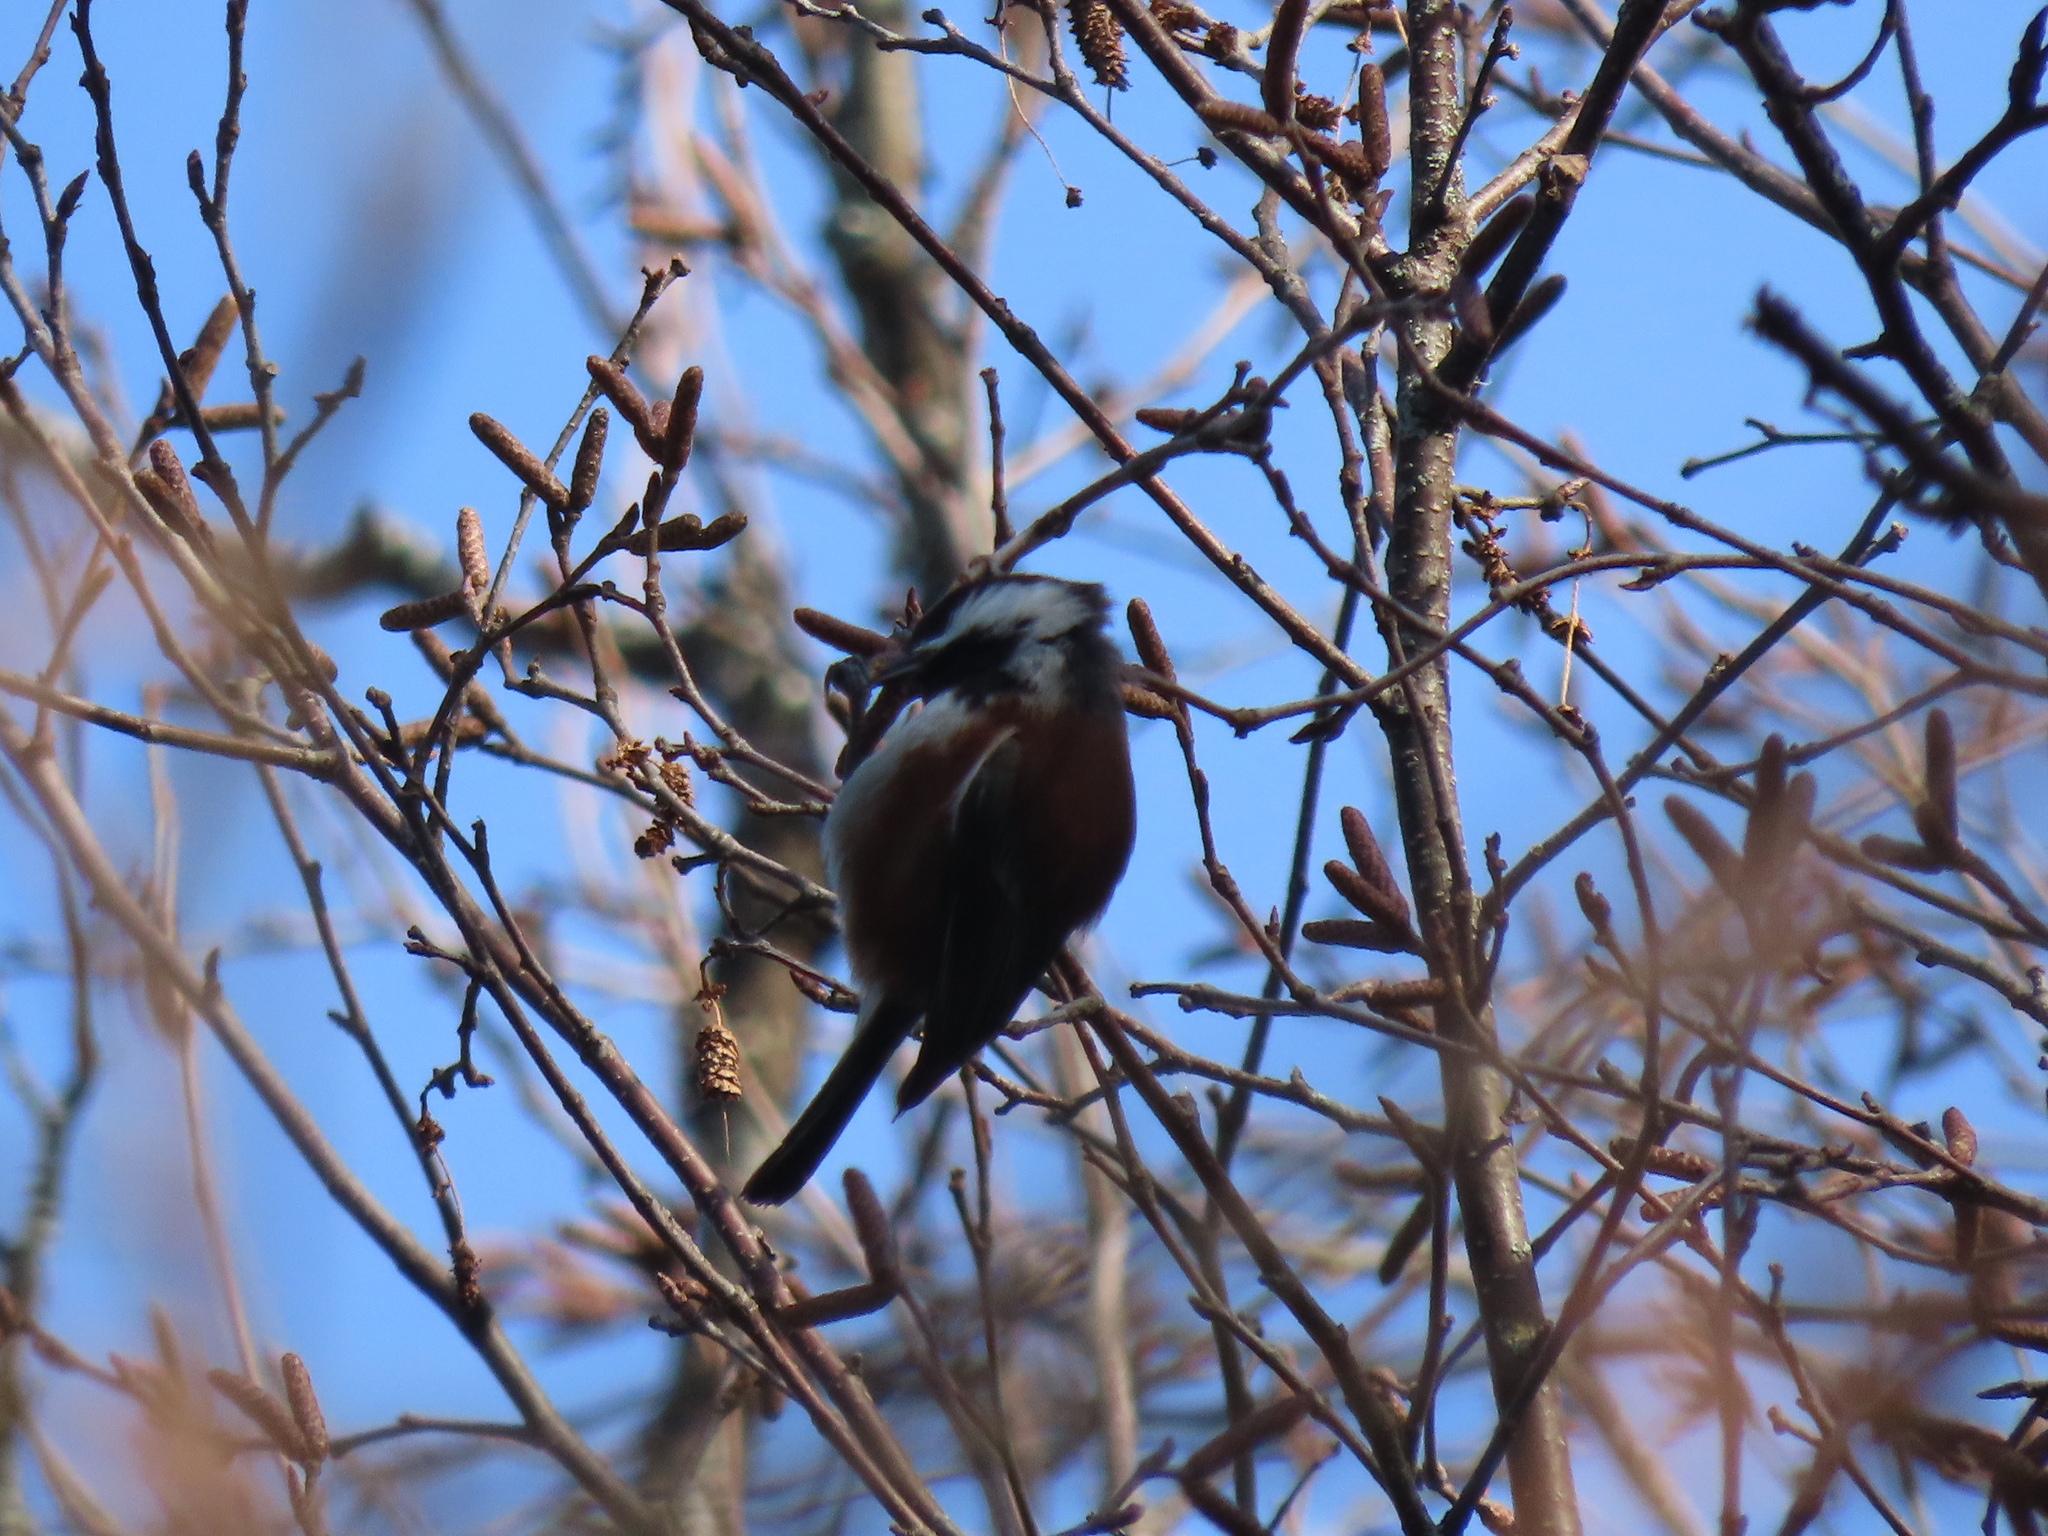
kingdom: Animalia
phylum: Chordata
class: Aves
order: Passeriformes
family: Paridae
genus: Poecile
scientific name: Poecile rufescens
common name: Chestnut-backed chickadee
